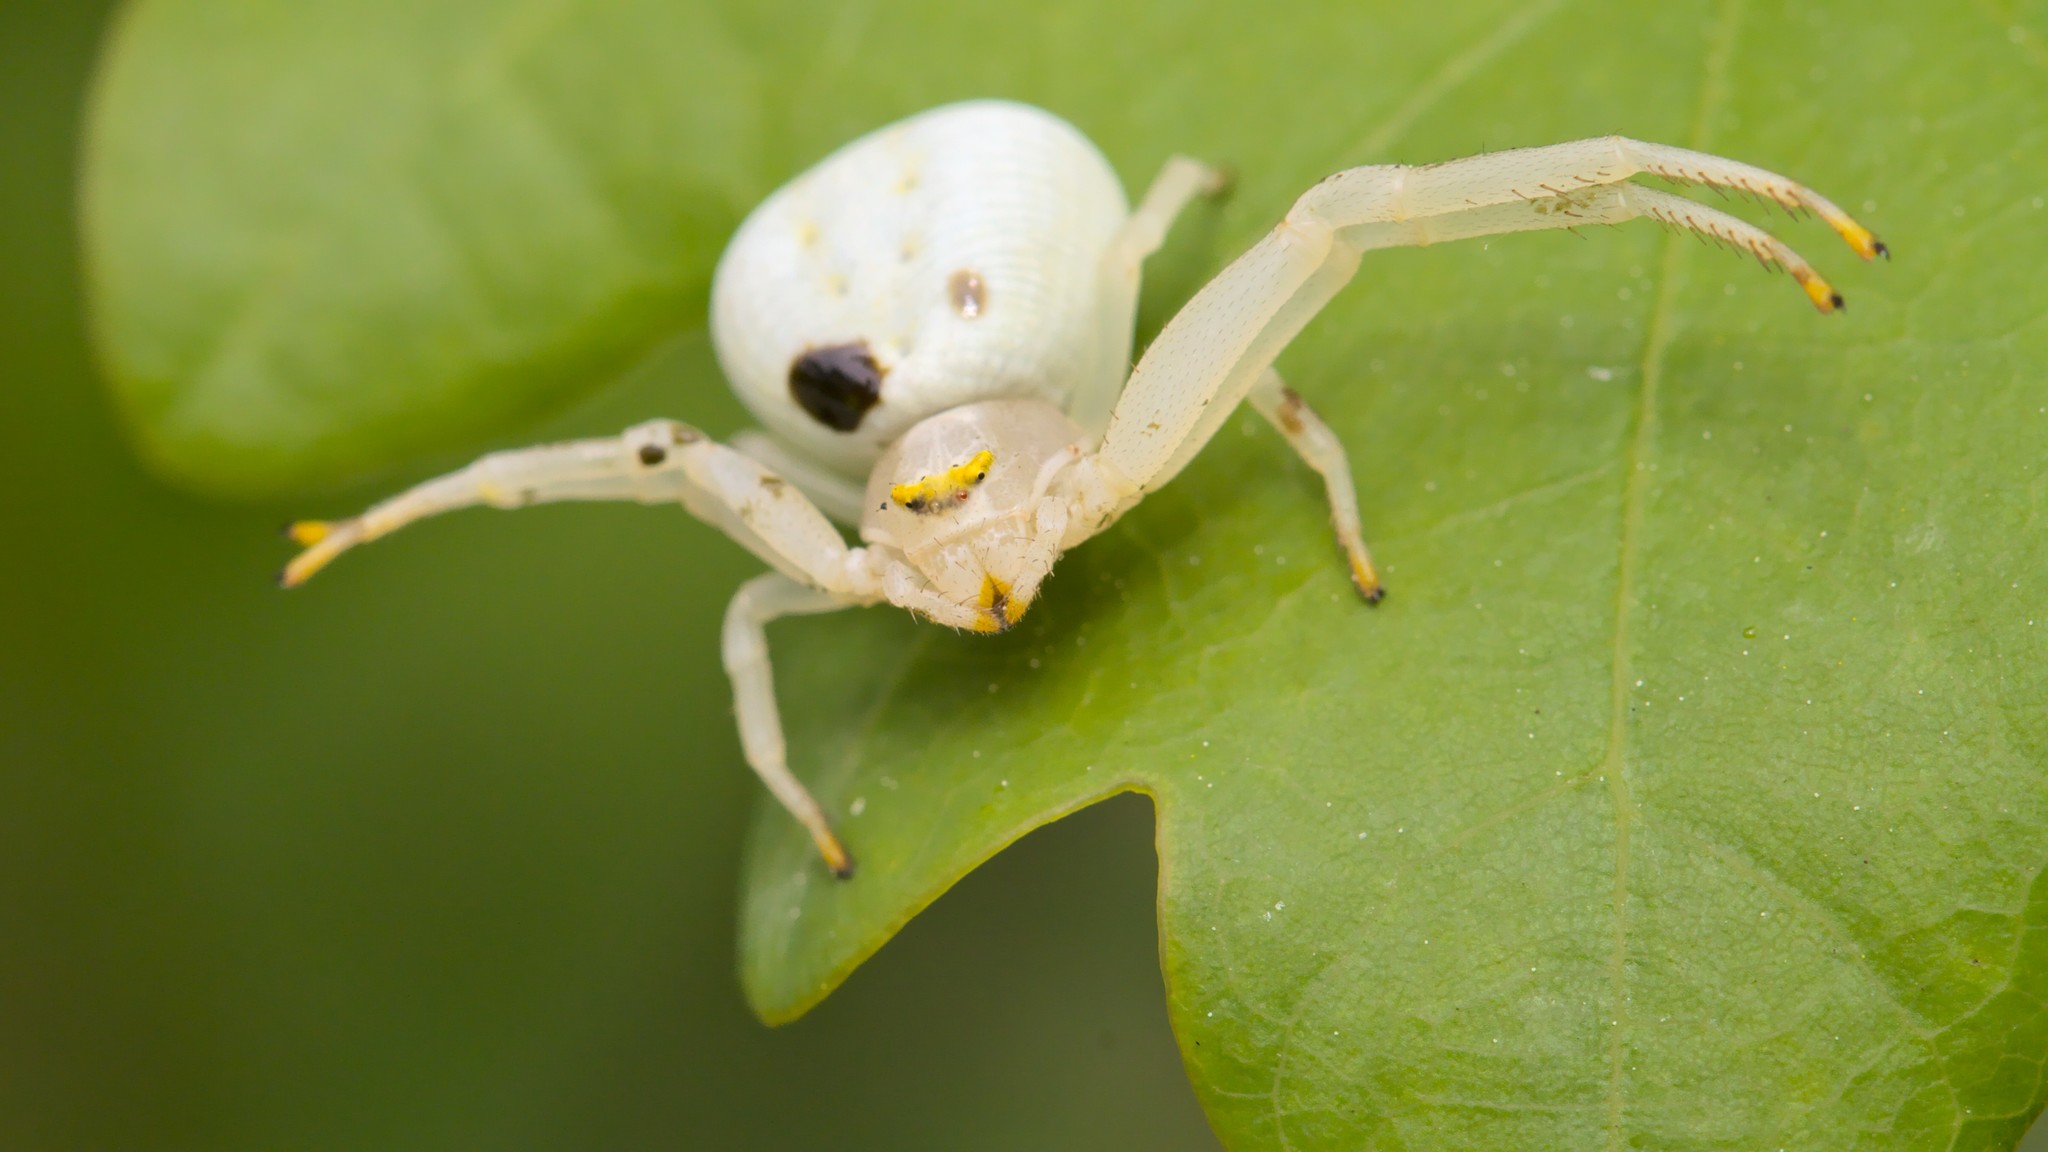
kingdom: Animalia
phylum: Arthropoda
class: Arachnida
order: Araneae
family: Thomisidae
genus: Misumena
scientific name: Misumena vatia
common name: Goldenrod crab spider
